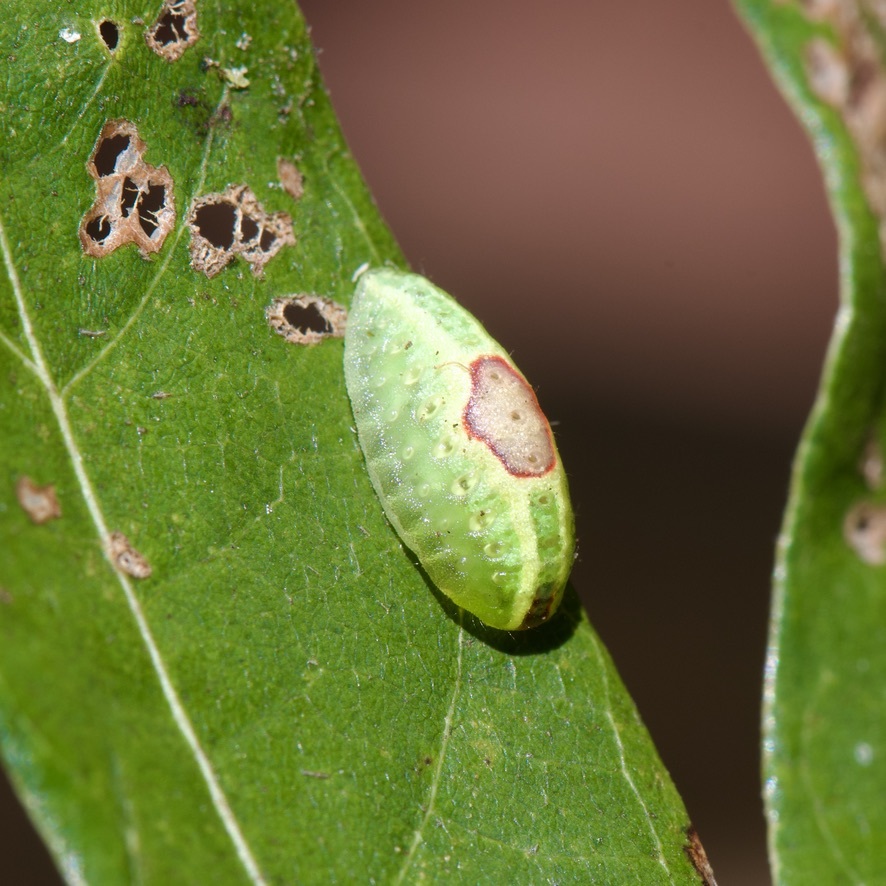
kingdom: Animalia
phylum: Arthropoda
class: Insecta
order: Lepidoptera
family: Limacodidae
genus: Tortricidia
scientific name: Tortricidia flexuosa
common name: Abbreviated button slug moth
